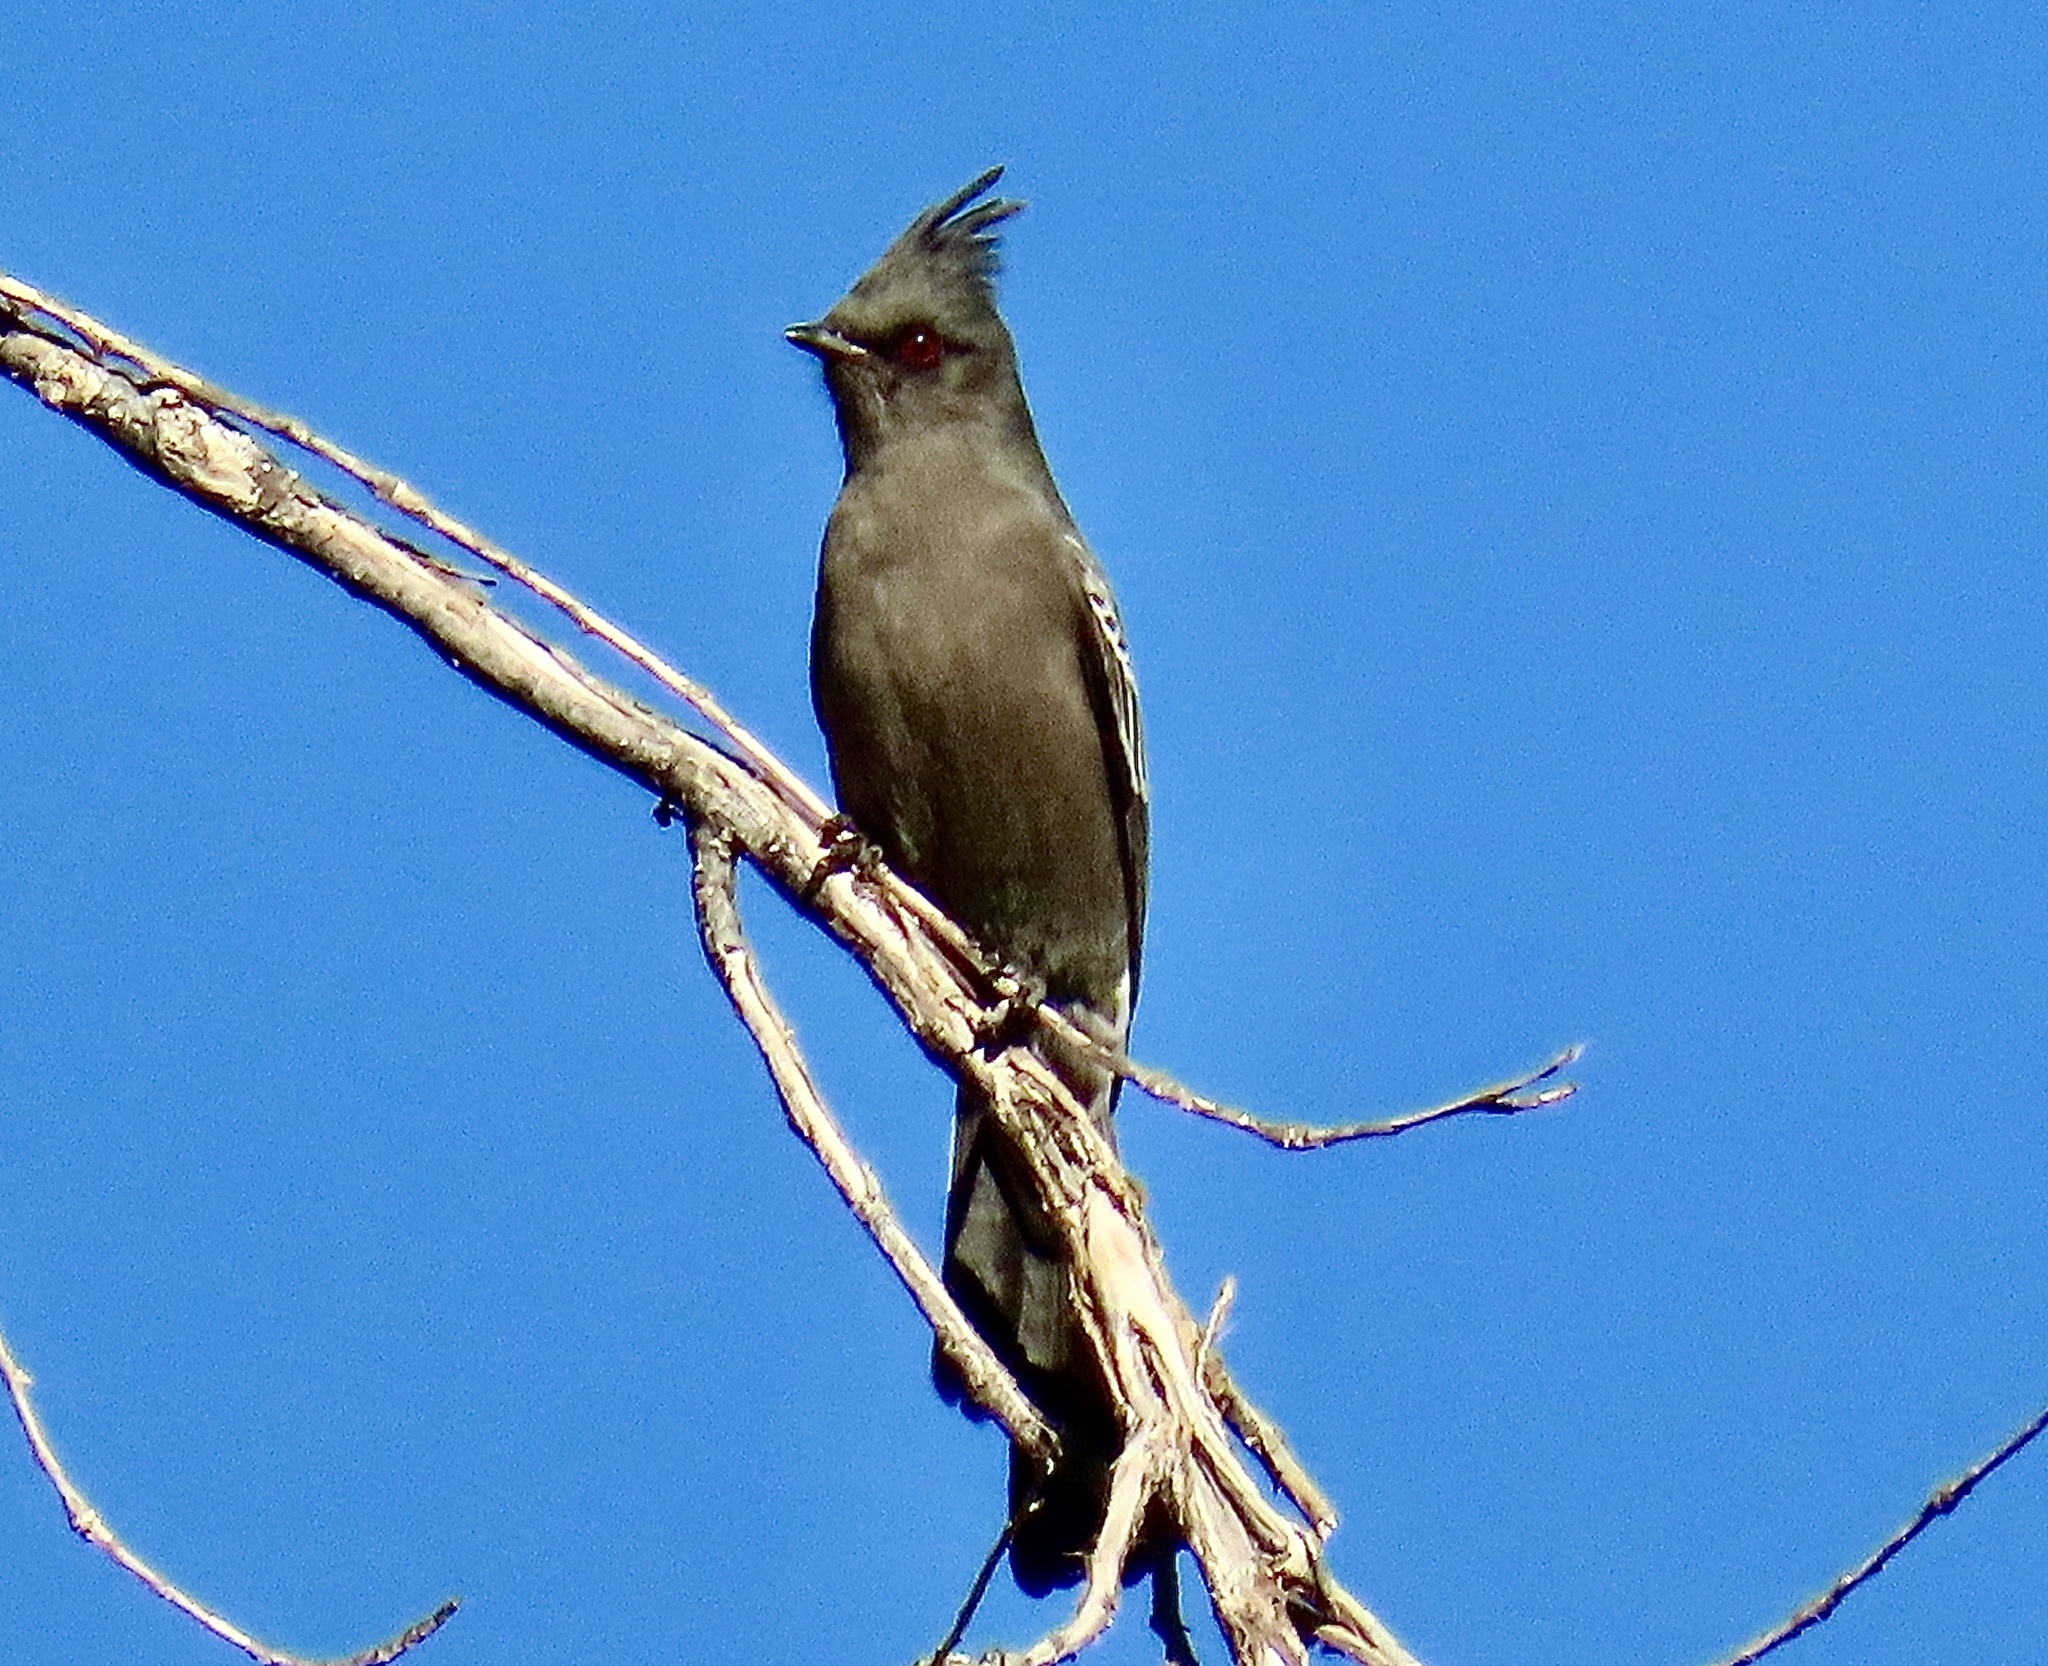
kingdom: Animalia
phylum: Chordata
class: Aves
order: Passeriformes
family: Ptilogonatidae
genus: Phainopepla
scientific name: Phainopepla nitens
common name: Phainopepla
